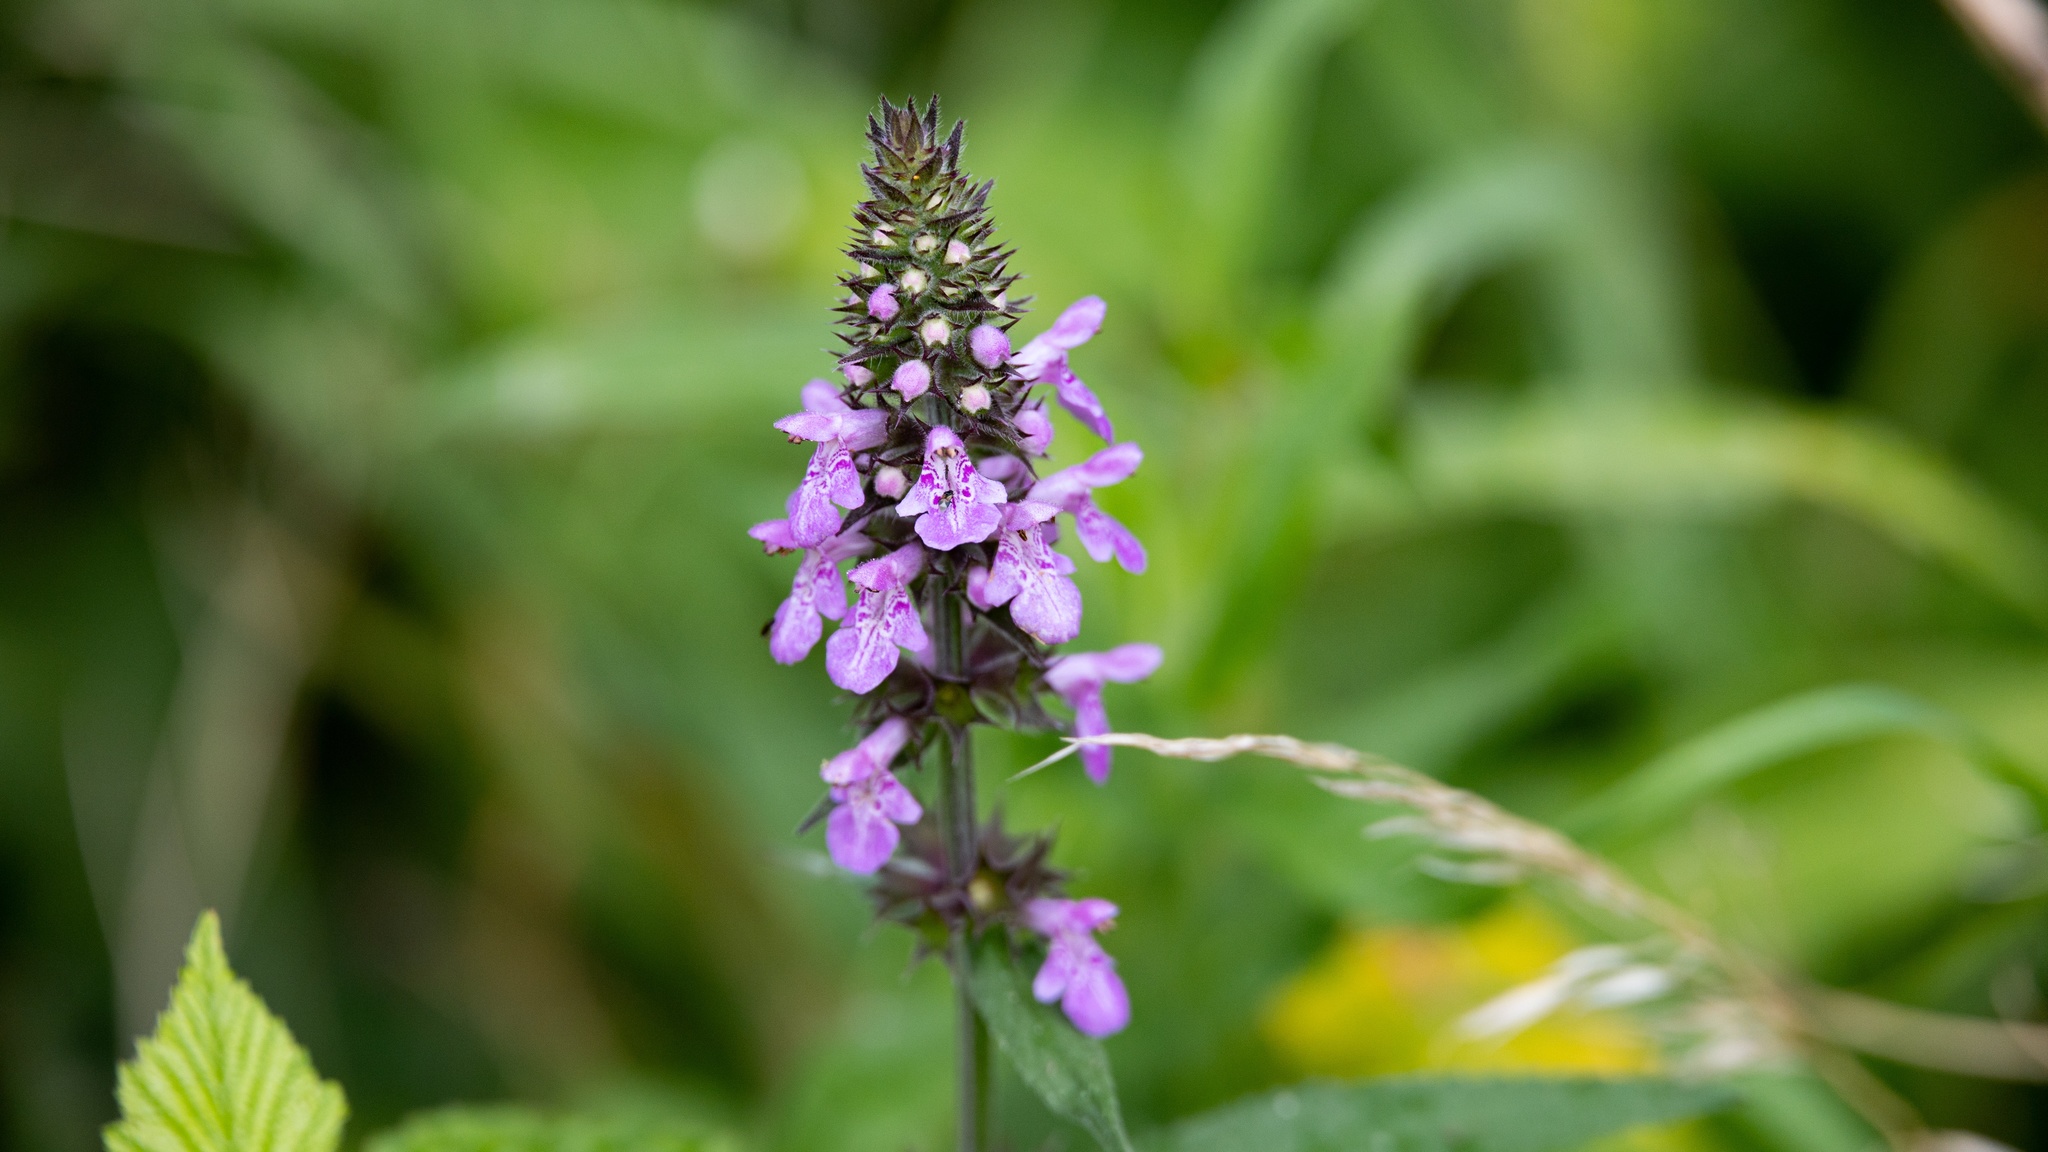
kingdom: Plantae
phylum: Tracheophyta
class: Magnoliopsida
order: Lamiales
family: Lamiaceae
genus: Stachys
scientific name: Stachys palustris
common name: Marsh woundwort
